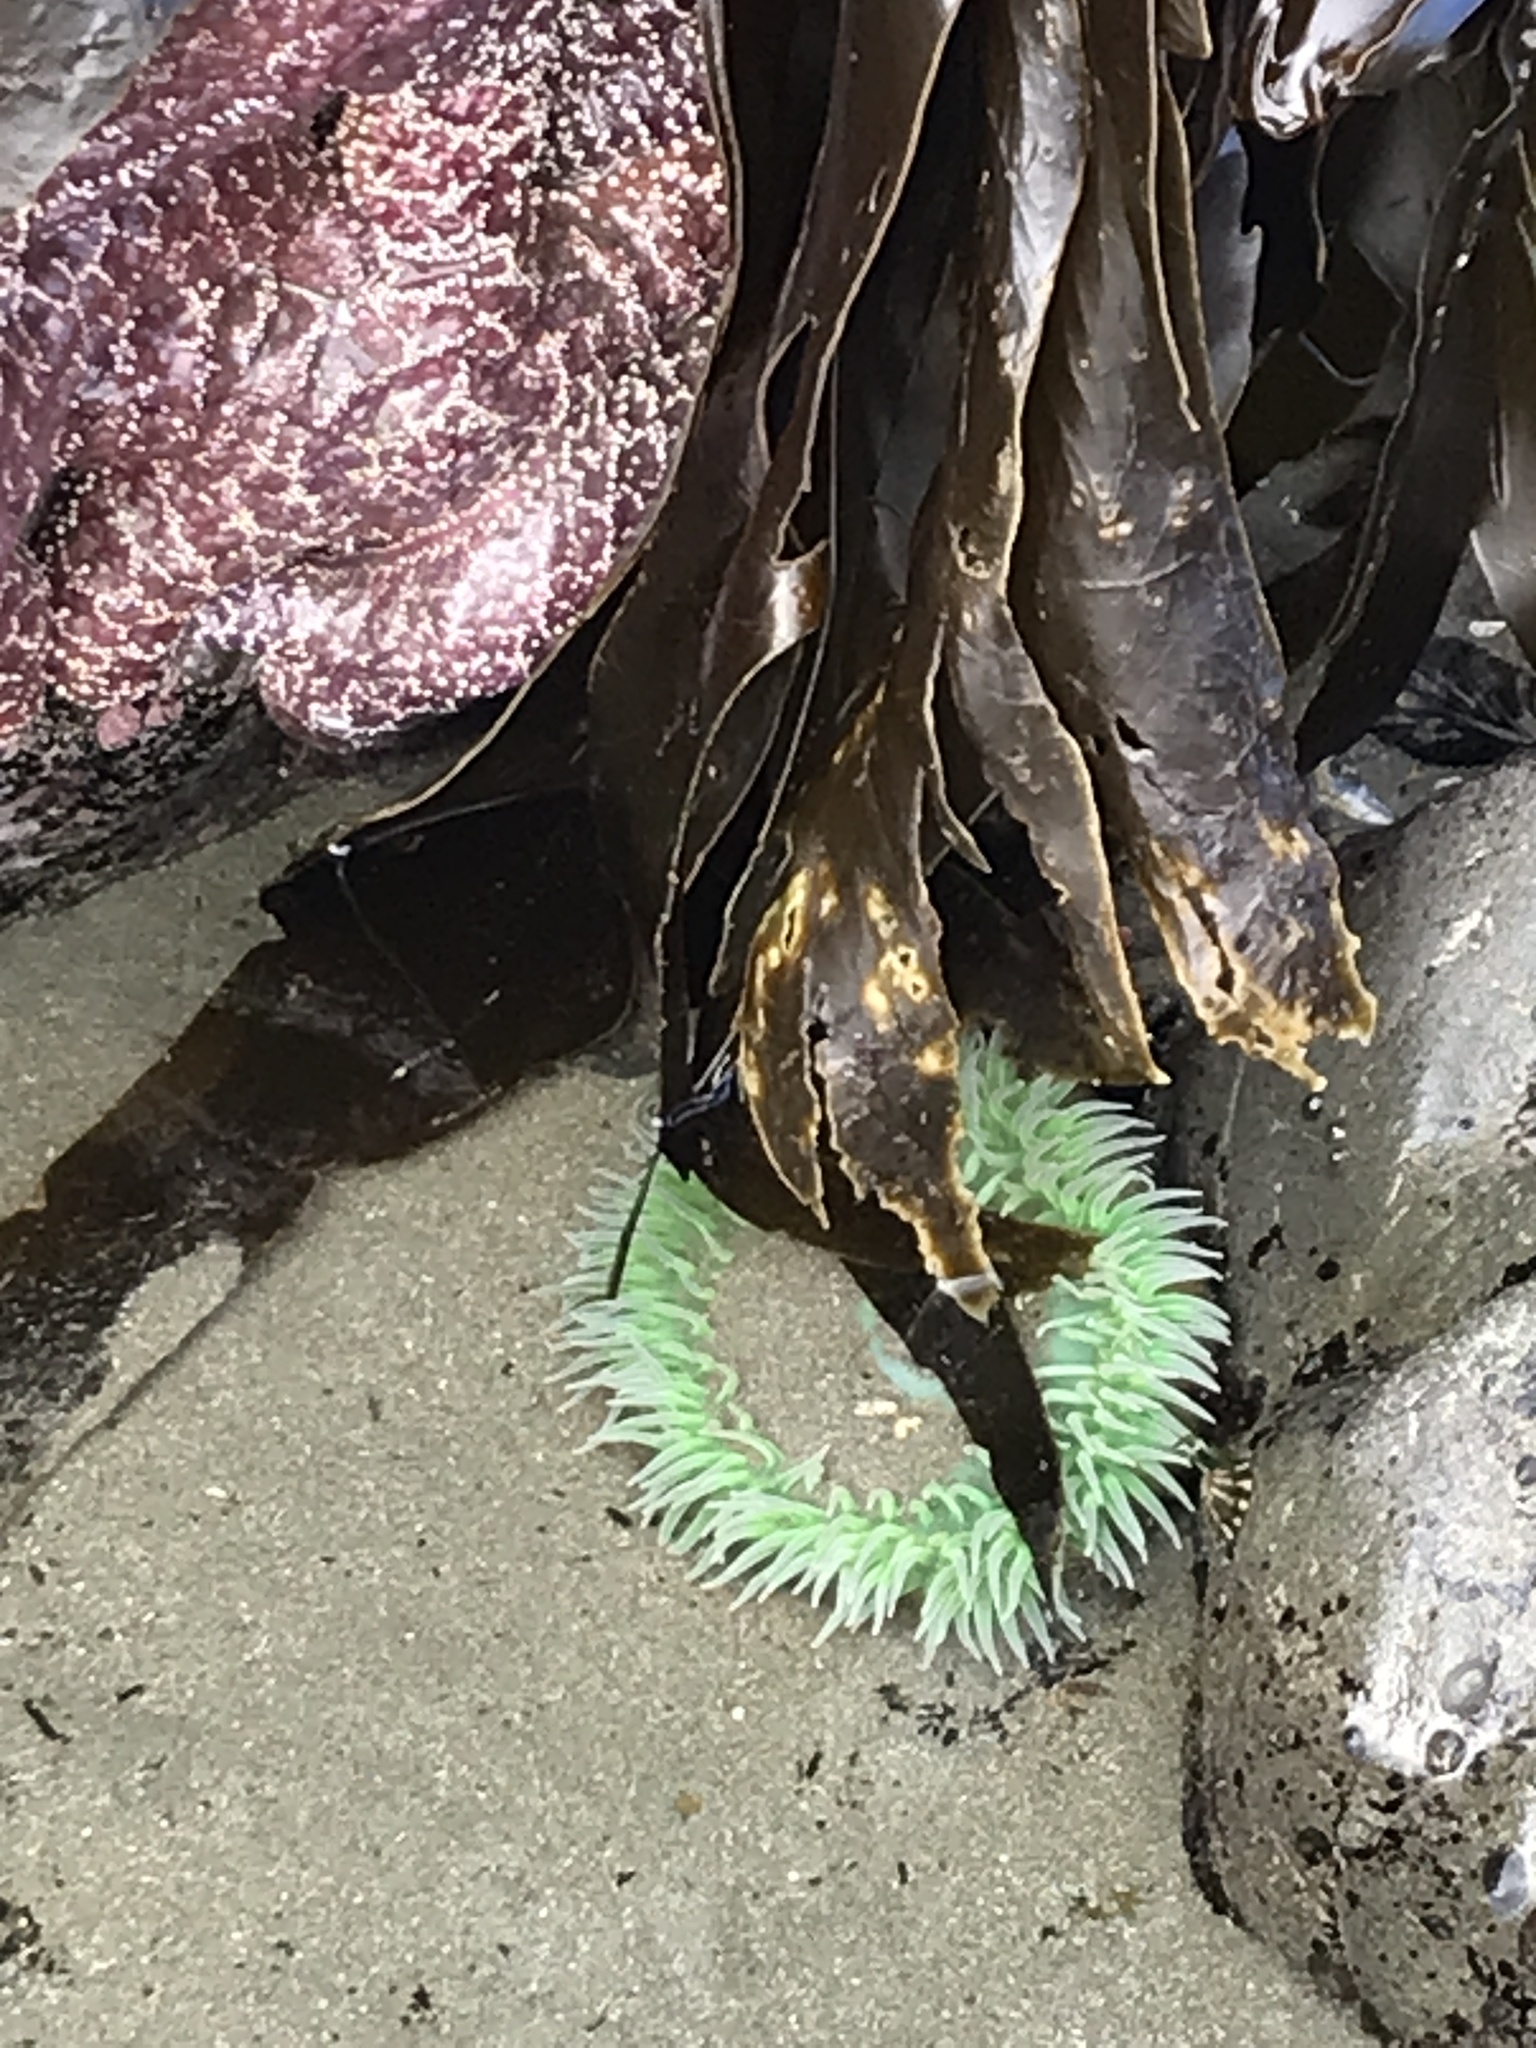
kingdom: Animalia
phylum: Cnidaria
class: Anthozoa
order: Actiniaria
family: Actiniidae
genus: Anthopleura
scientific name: Anthopleura xanthogrammica
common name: Giant green anemone
